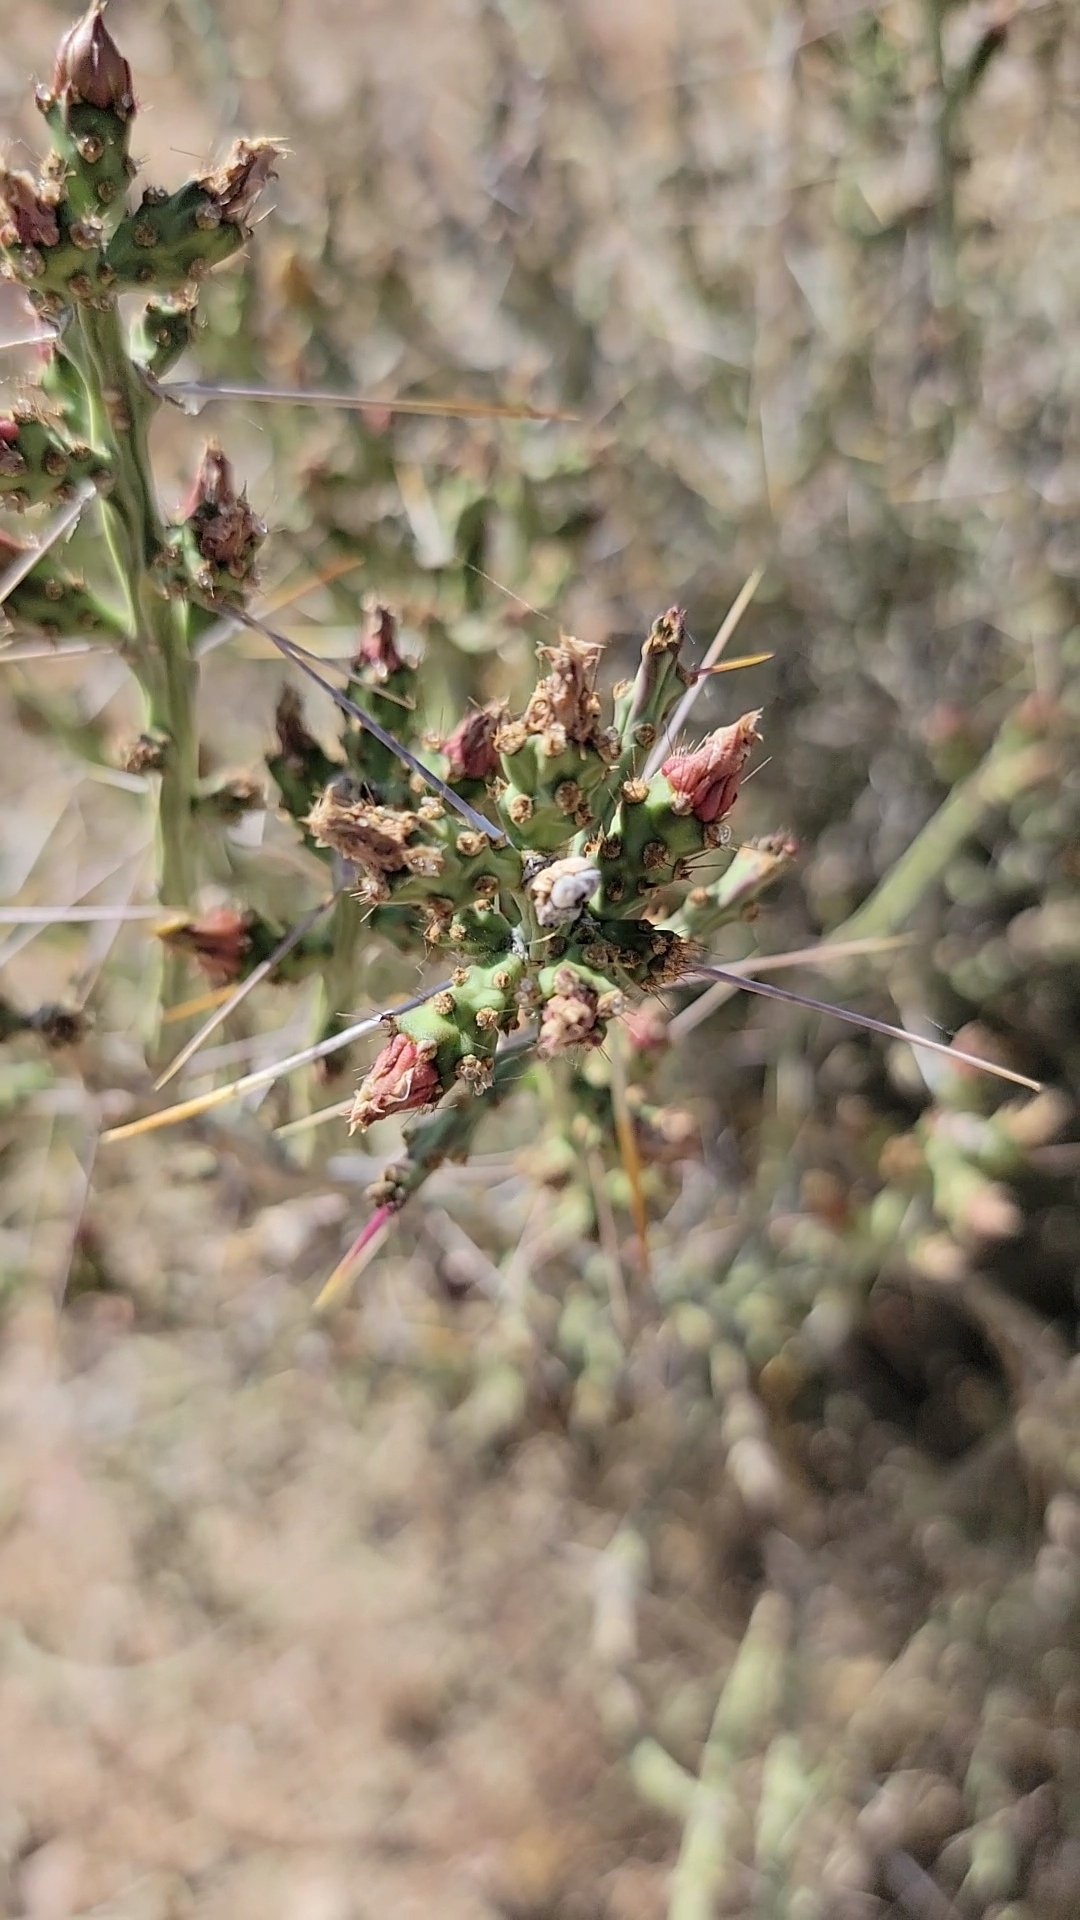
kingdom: Plantae
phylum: Tracheophyta
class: Magnoliopsida
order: Caryophyllales
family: Cactaceae
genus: Cylindropuntia
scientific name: Cylindropuntia leptocaulis
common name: Christmas cactus
